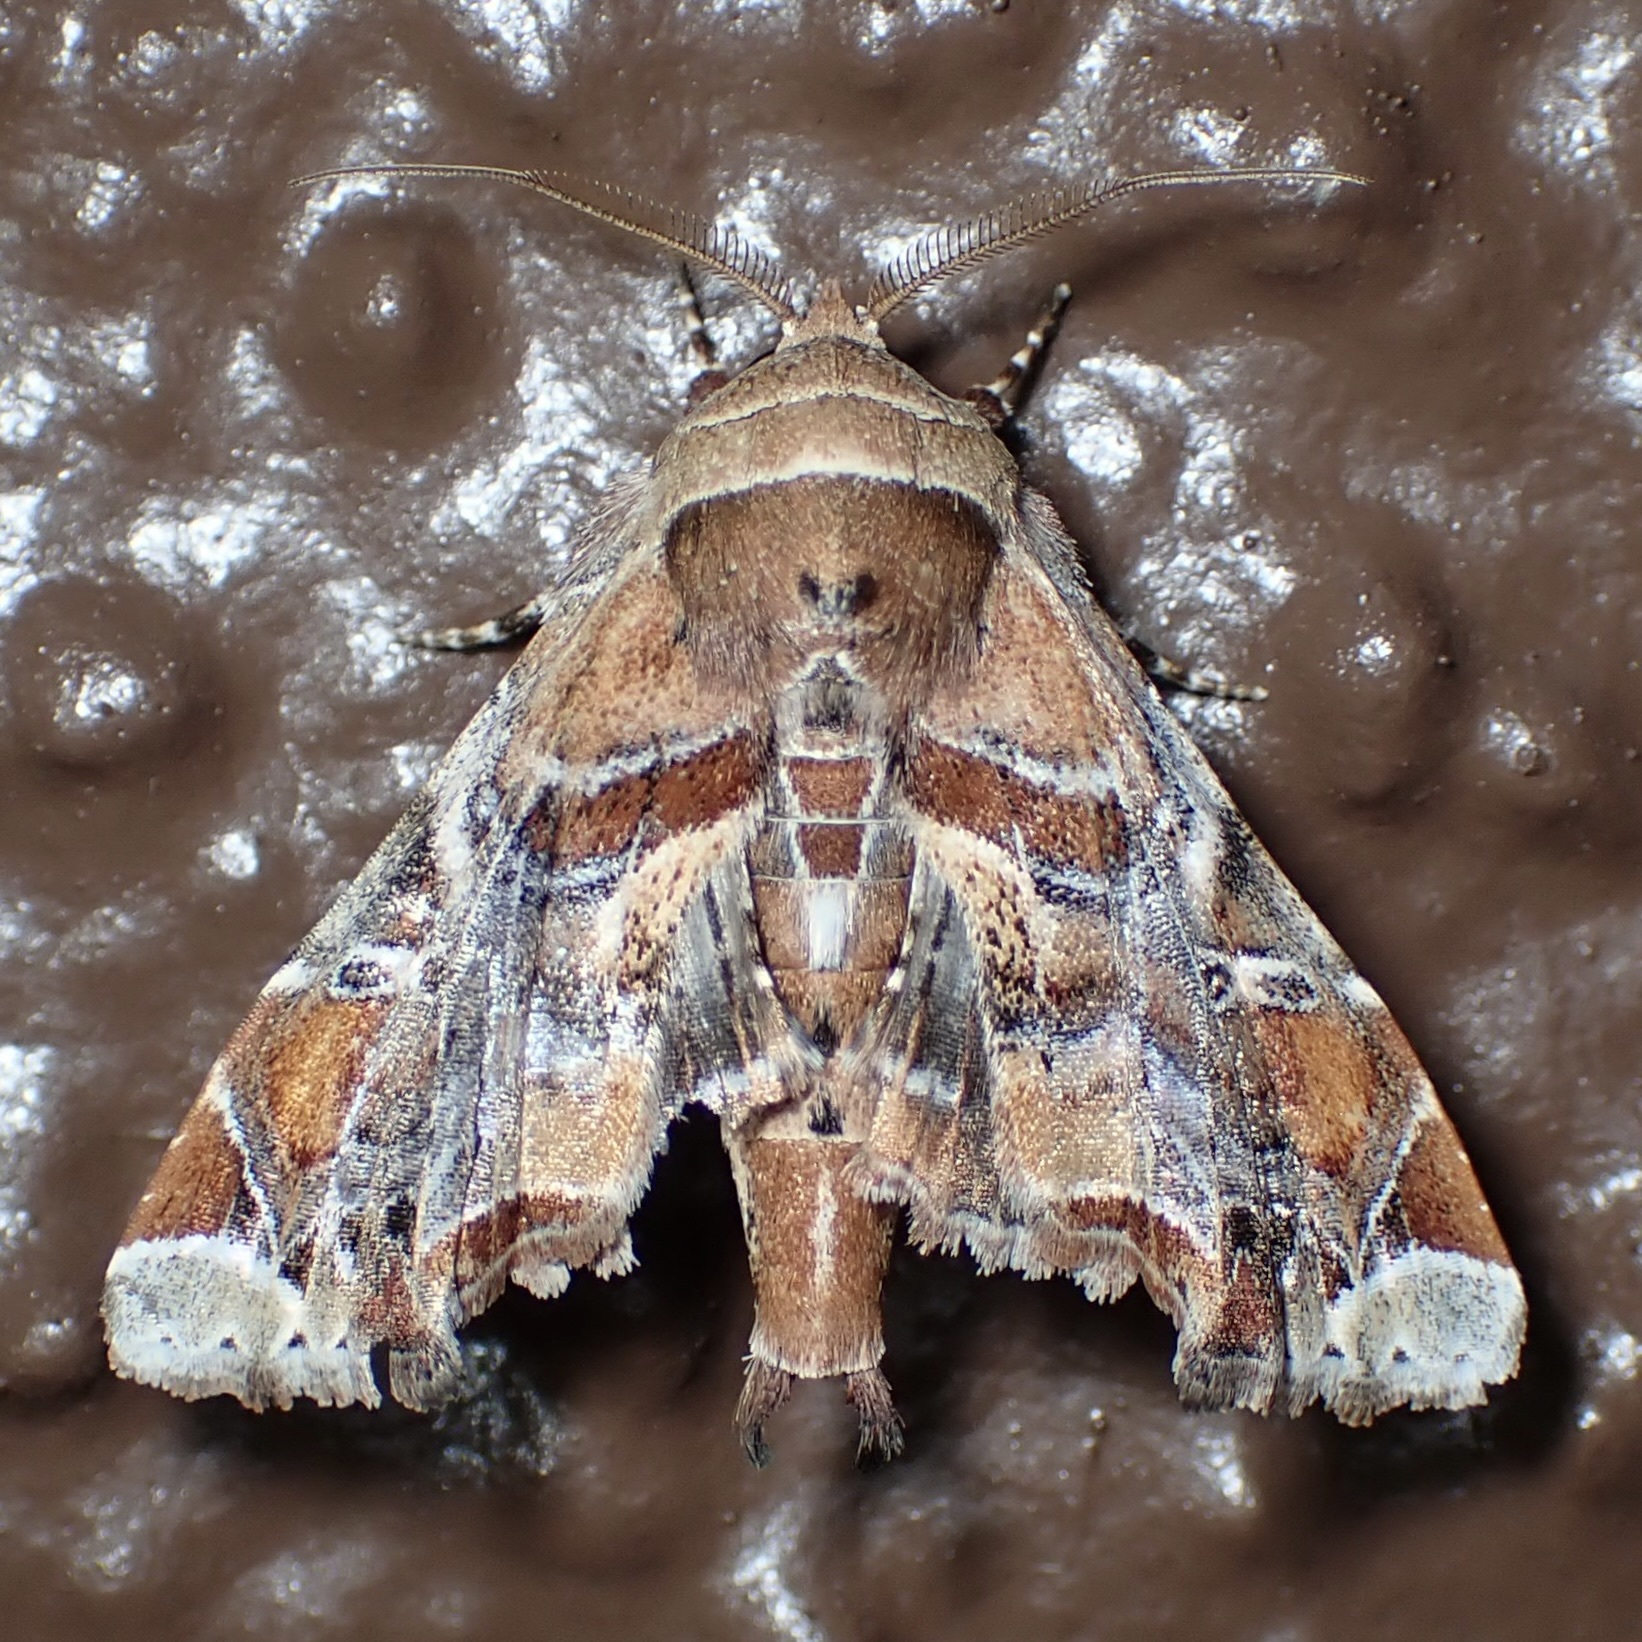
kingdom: Animalia
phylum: Arthropoda
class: Insecta
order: Lepidoptera
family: Euteliidae
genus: Eutelia
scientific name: Eutelia furcata
